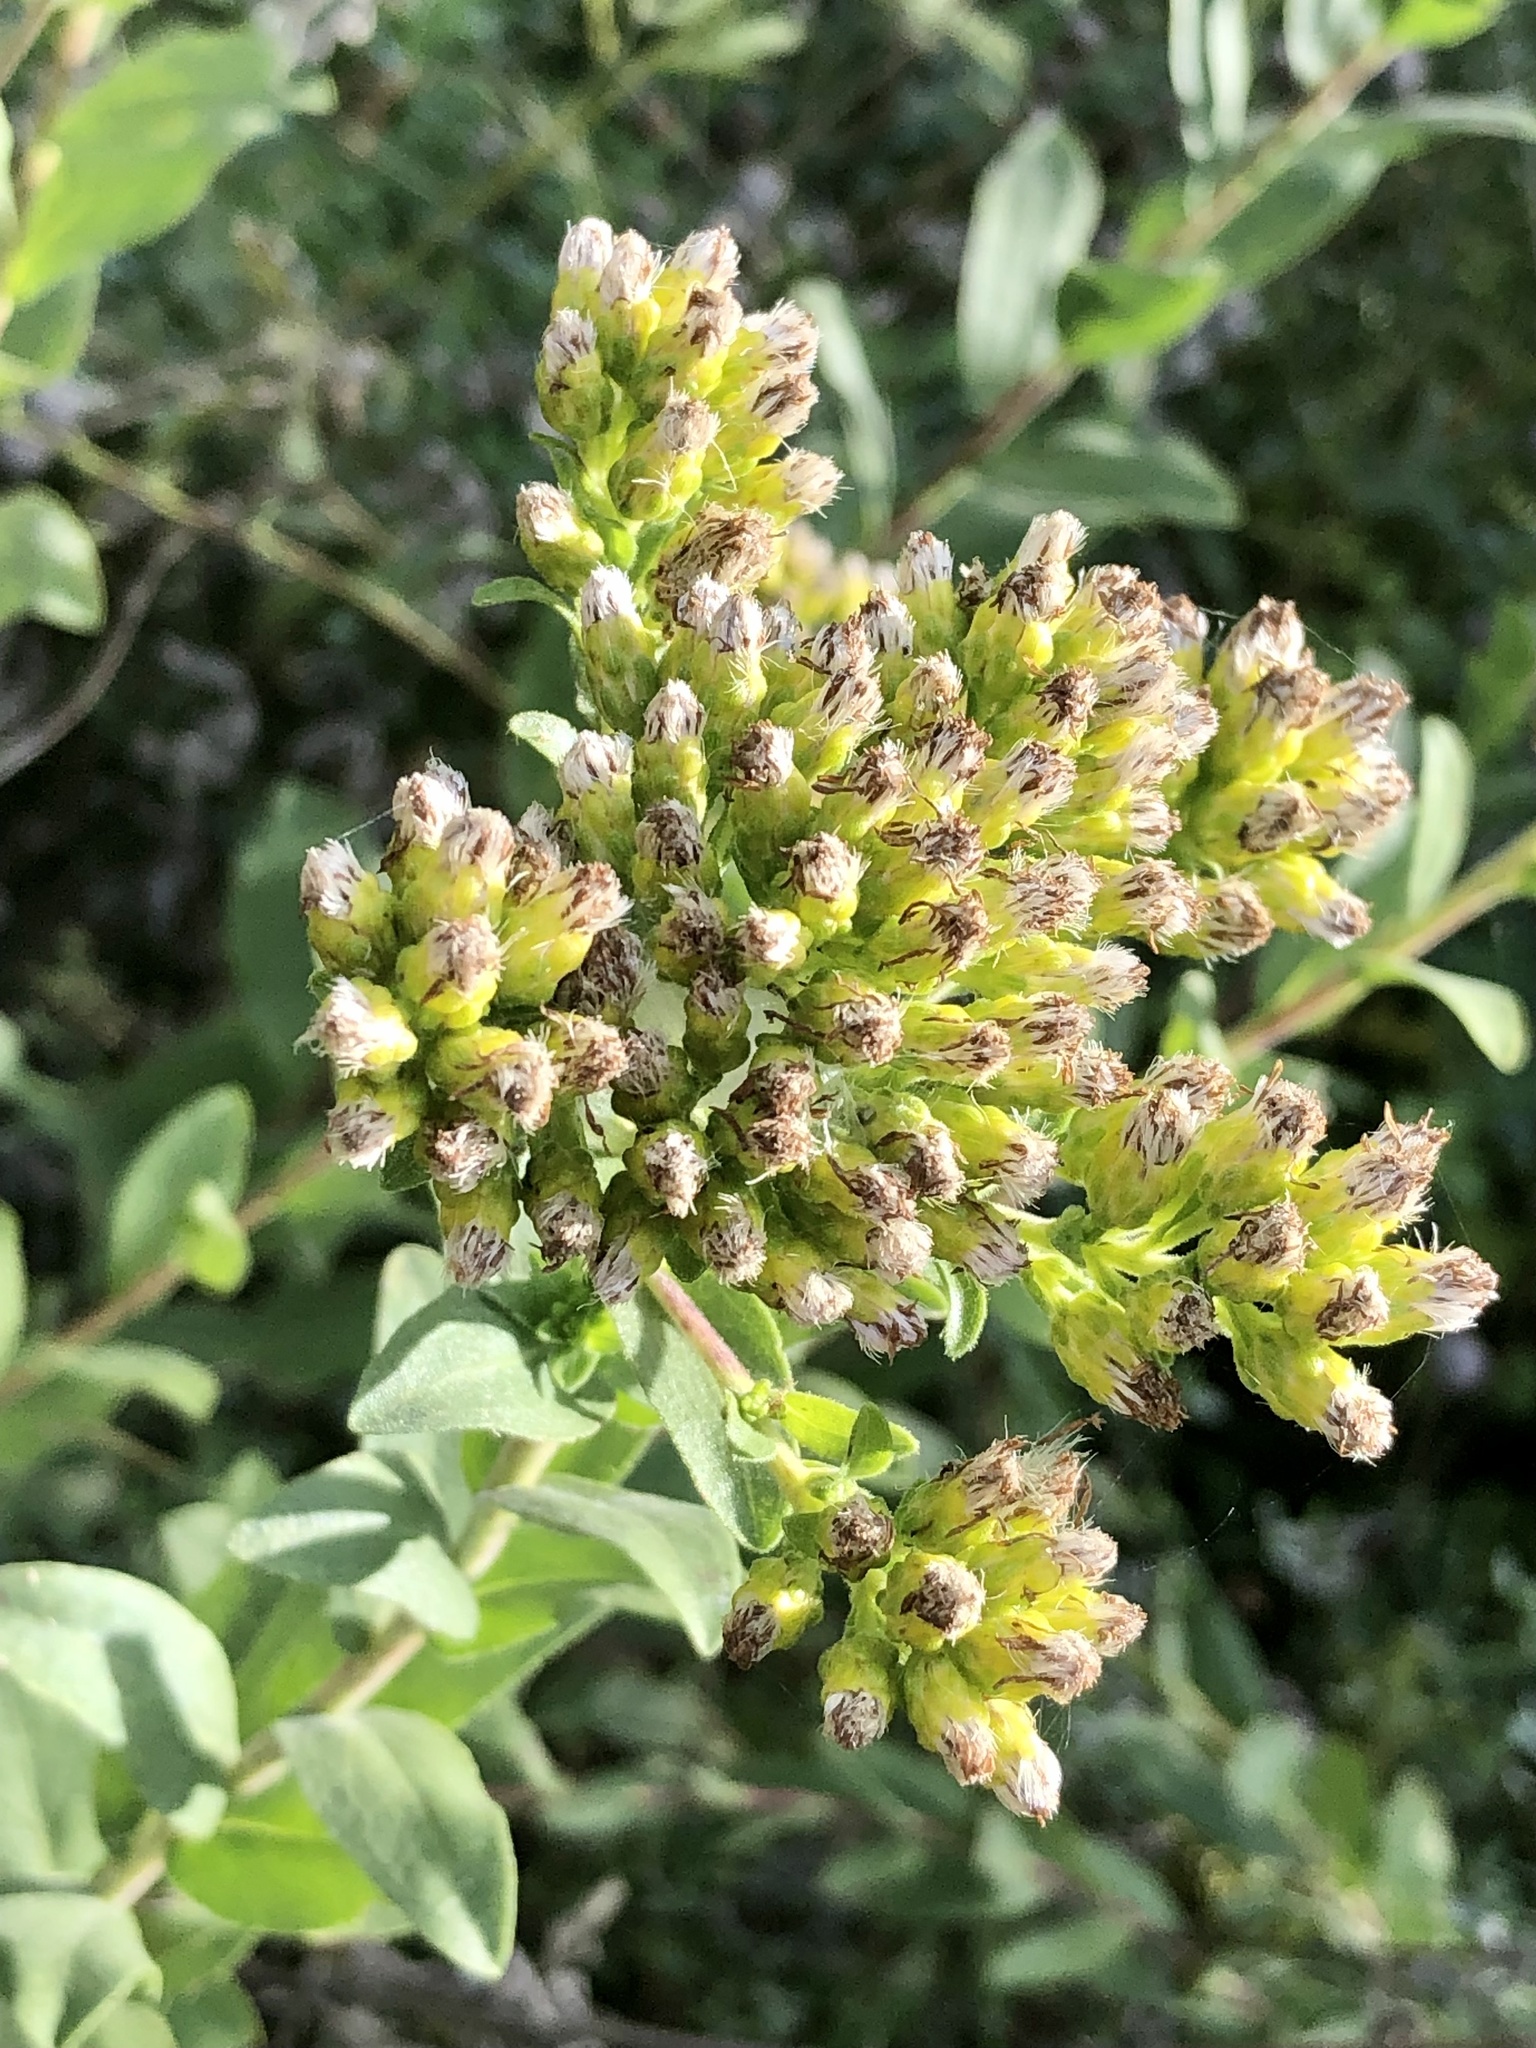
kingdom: Plantae
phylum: Tracheophyta
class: Magnoliopsida
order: Asterales
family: Asteraceae
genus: Solidago
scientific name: Solidago rigida
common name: Rigid goldenrod
